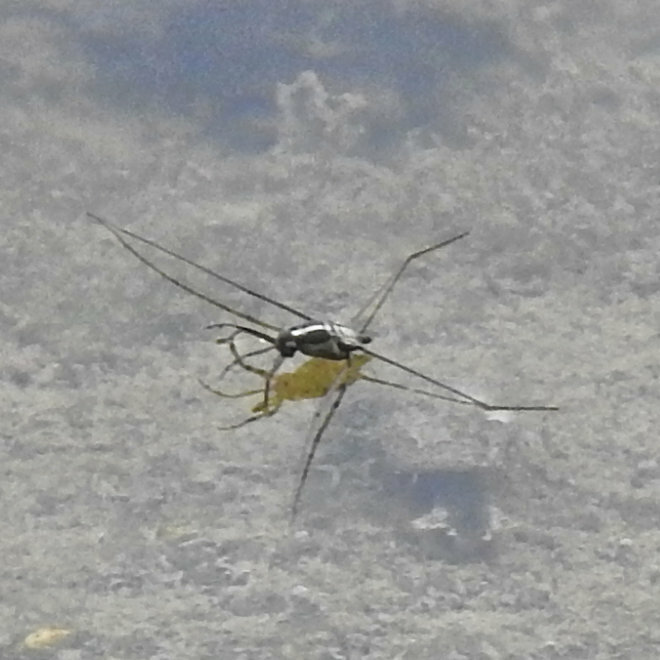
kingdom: Animalia
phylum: Arthropoda
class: Insecta
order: Hemiptera
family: Gerridae
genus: Metrobates
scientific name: Metrobates hesperius
